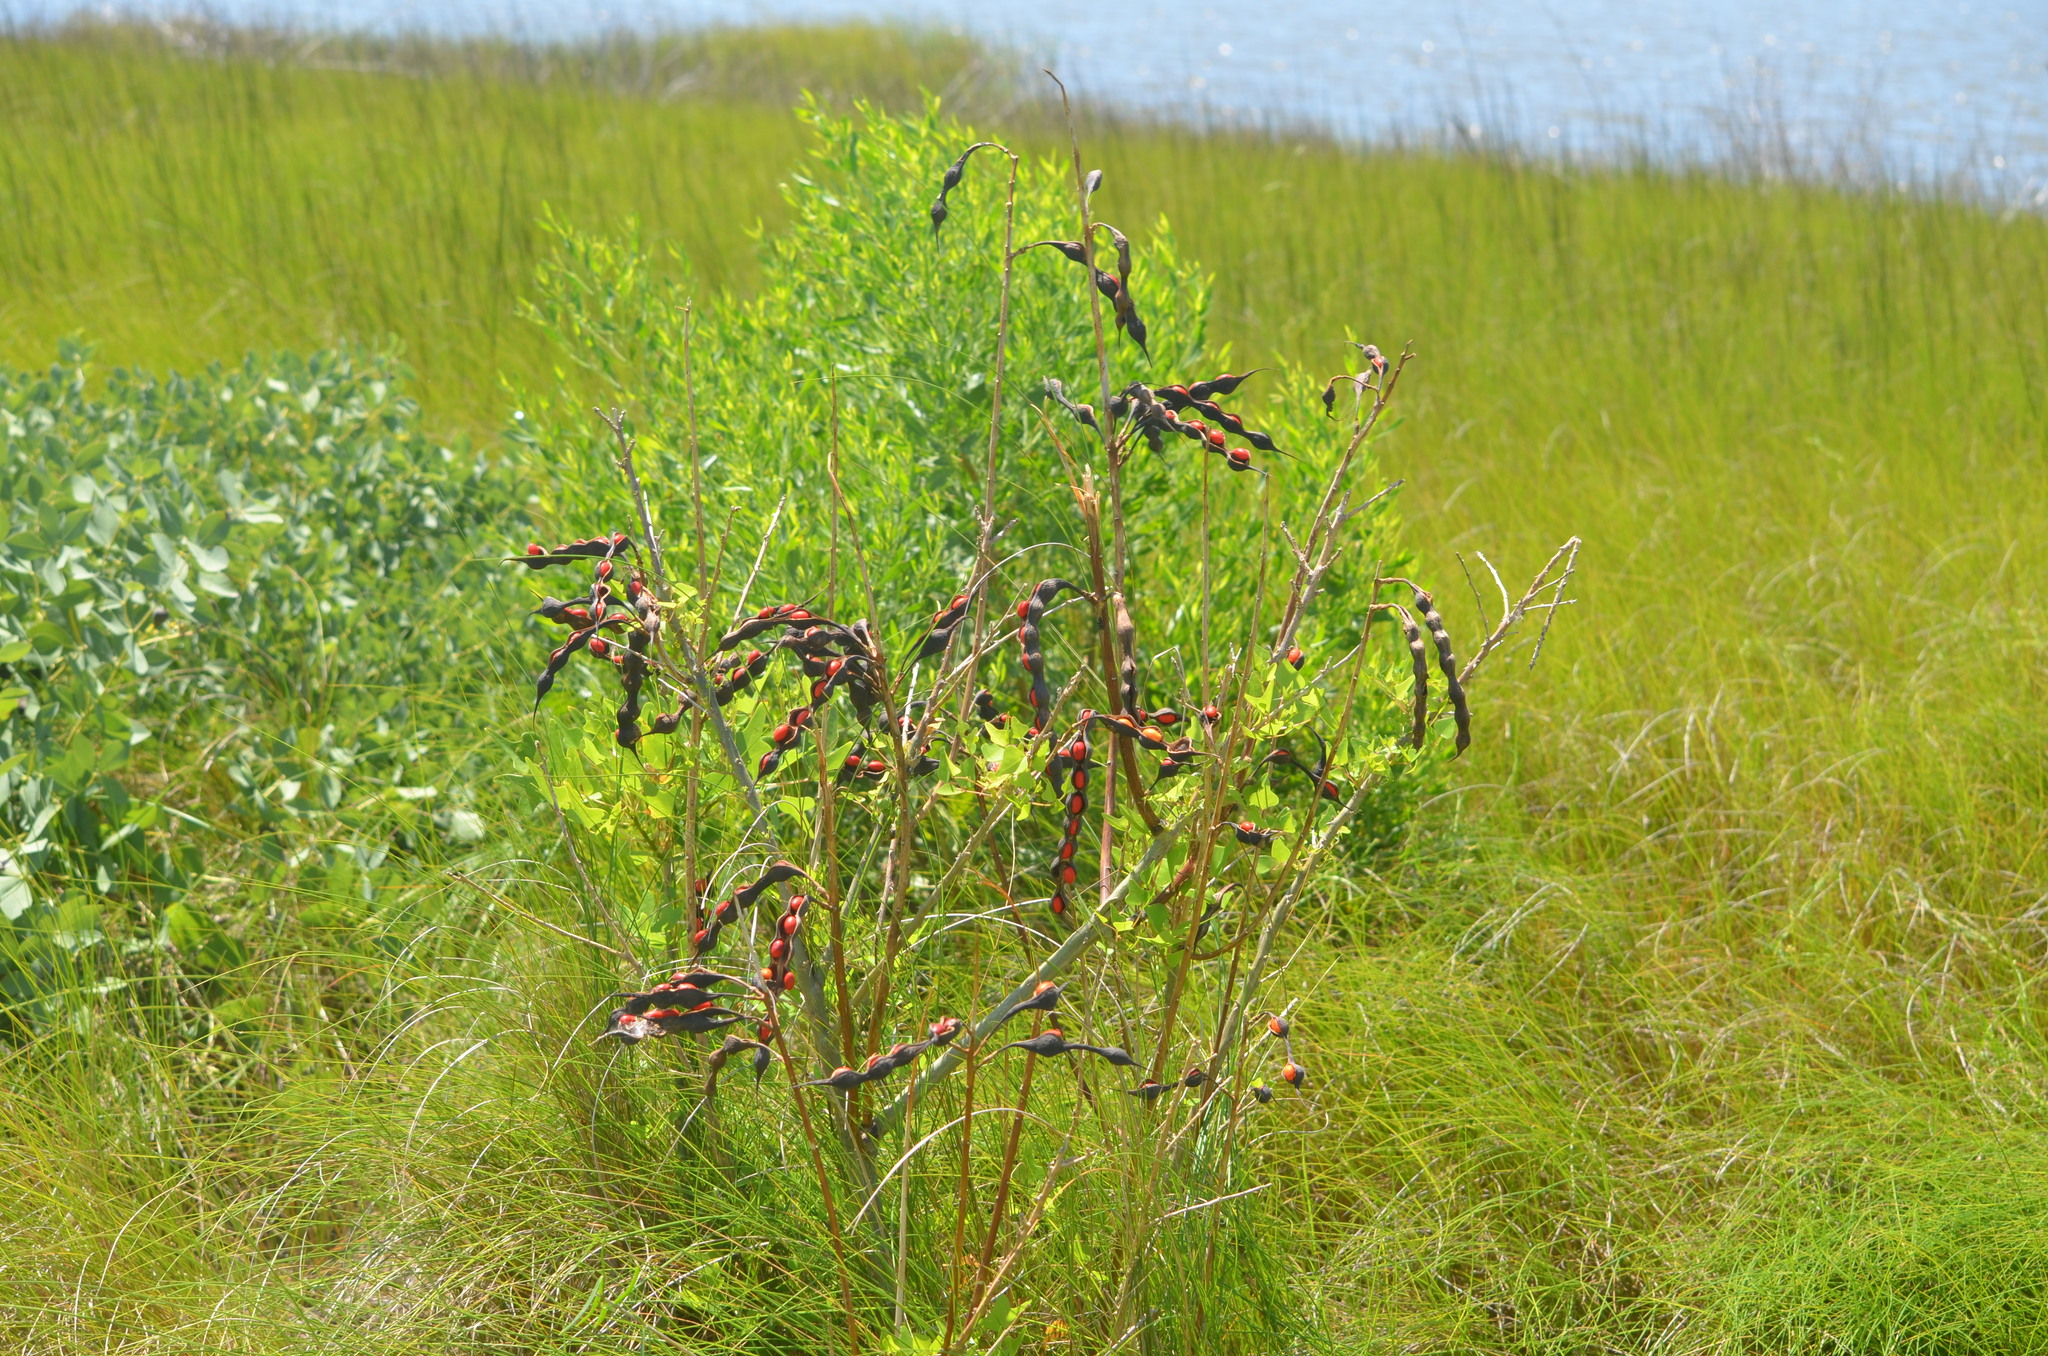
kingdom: Plantae
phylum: Tracheophyta
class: Magnoliopsida
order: Fabales
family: Fabaceae
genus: Erythrina
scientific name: Erythrina herbacea
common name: Coral-bean
